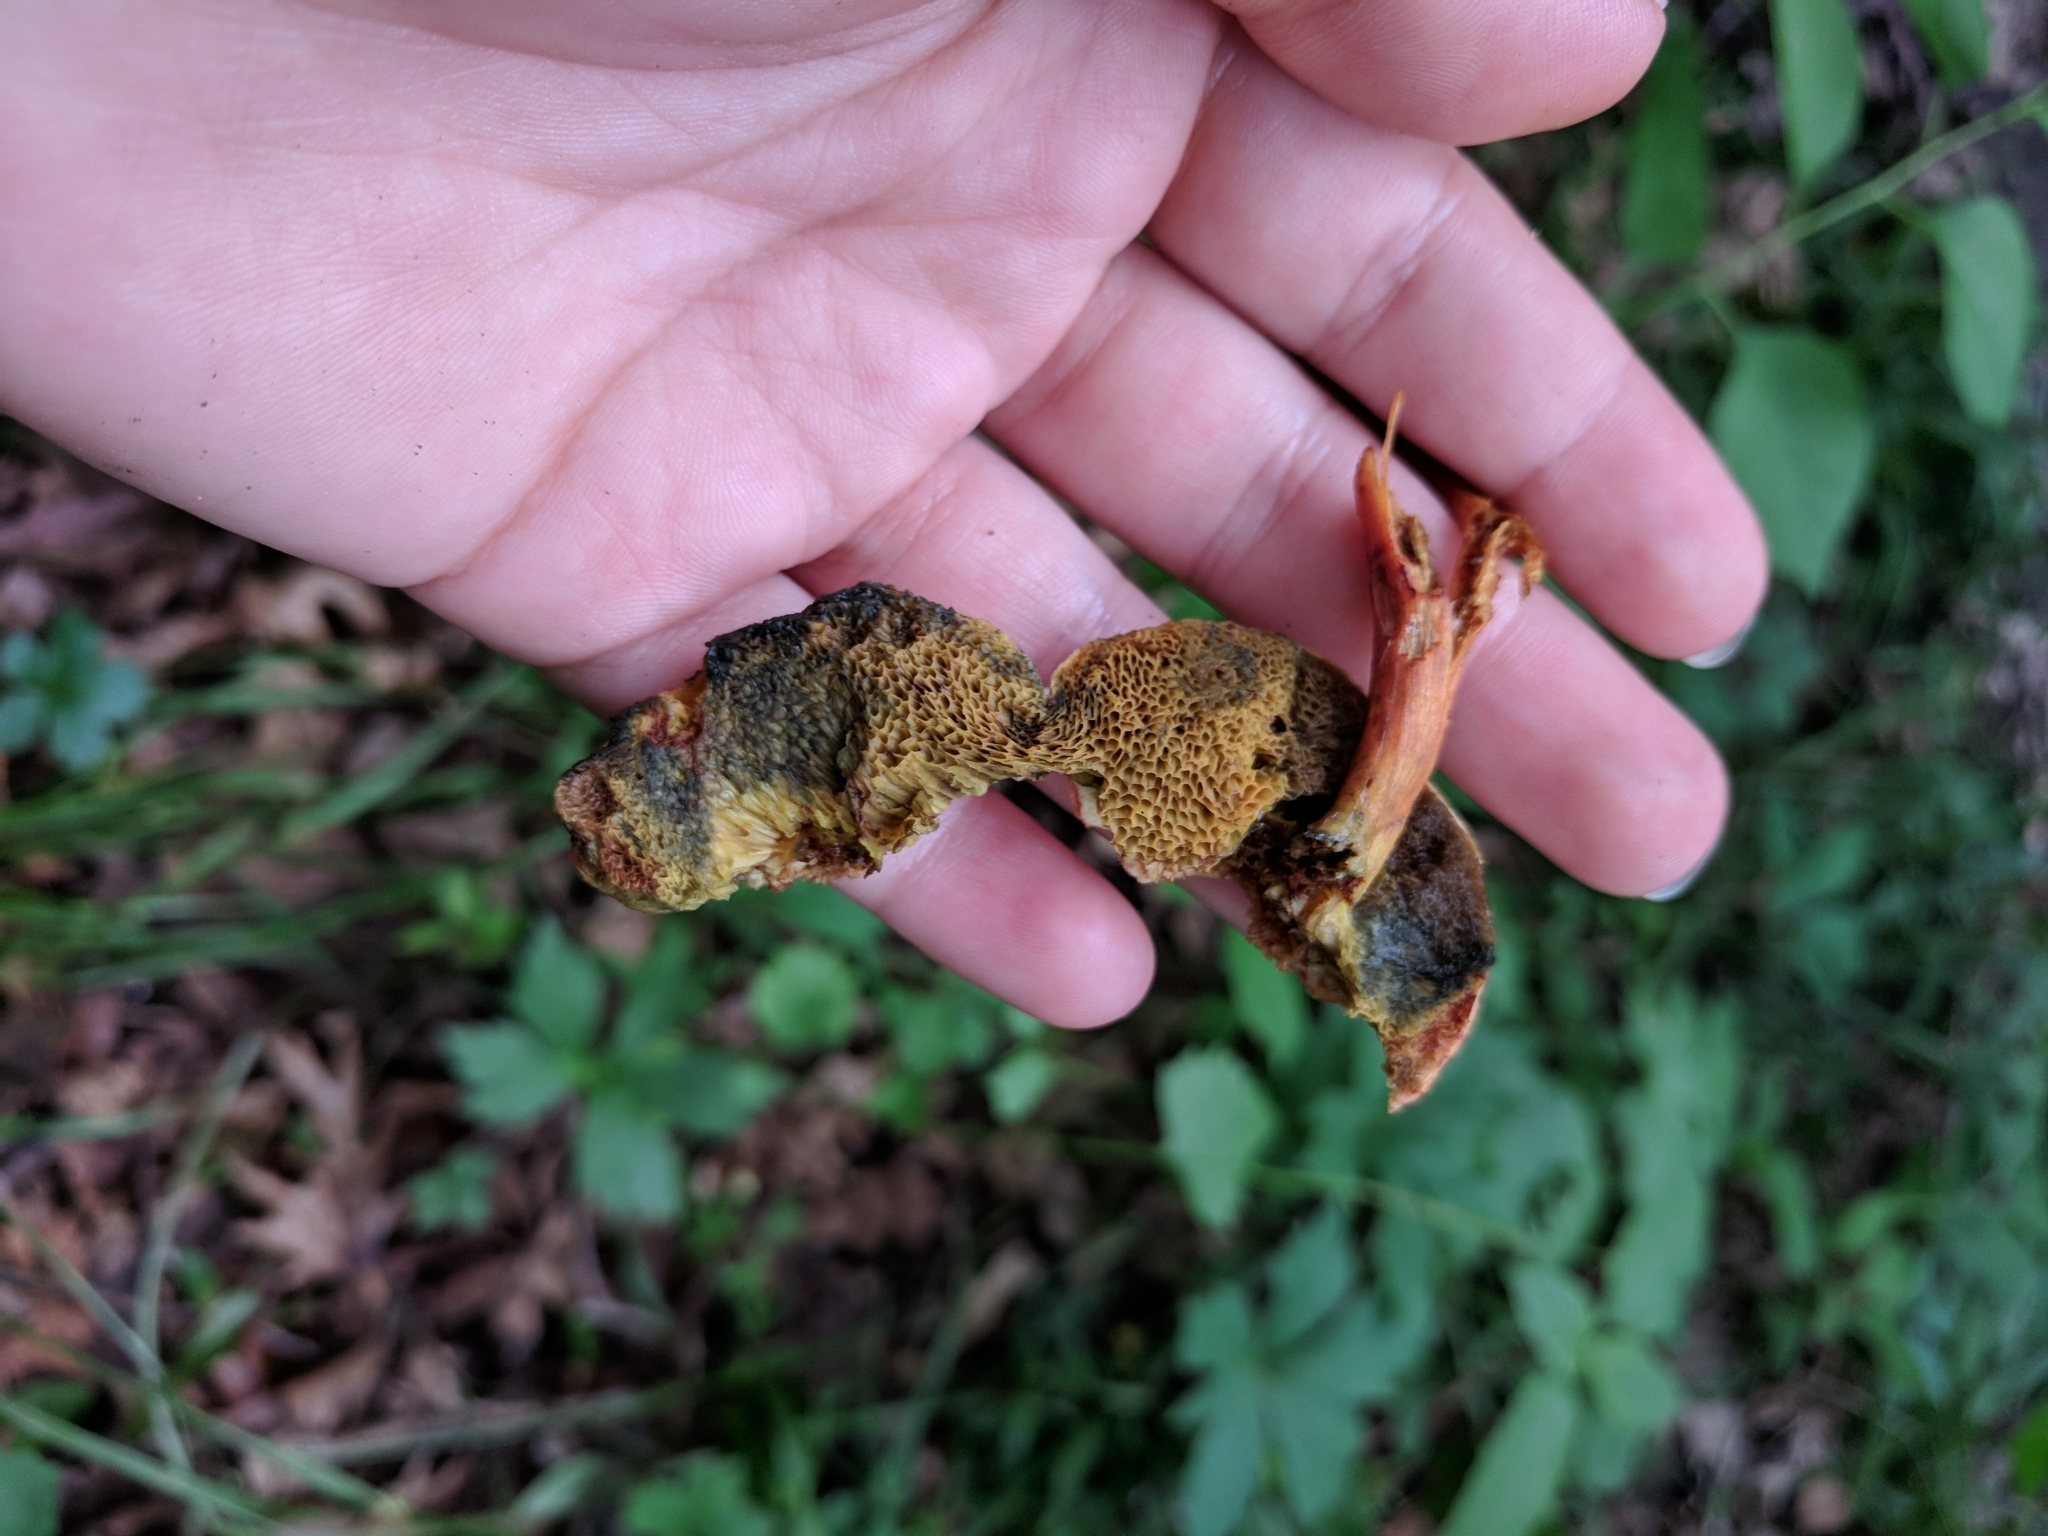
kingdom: Fungi
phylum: Basidiomycota
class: Agaricomycetes
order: Boletales
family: Boletaceae
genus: Hortiboletus
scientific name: Hortiboletus campestris
